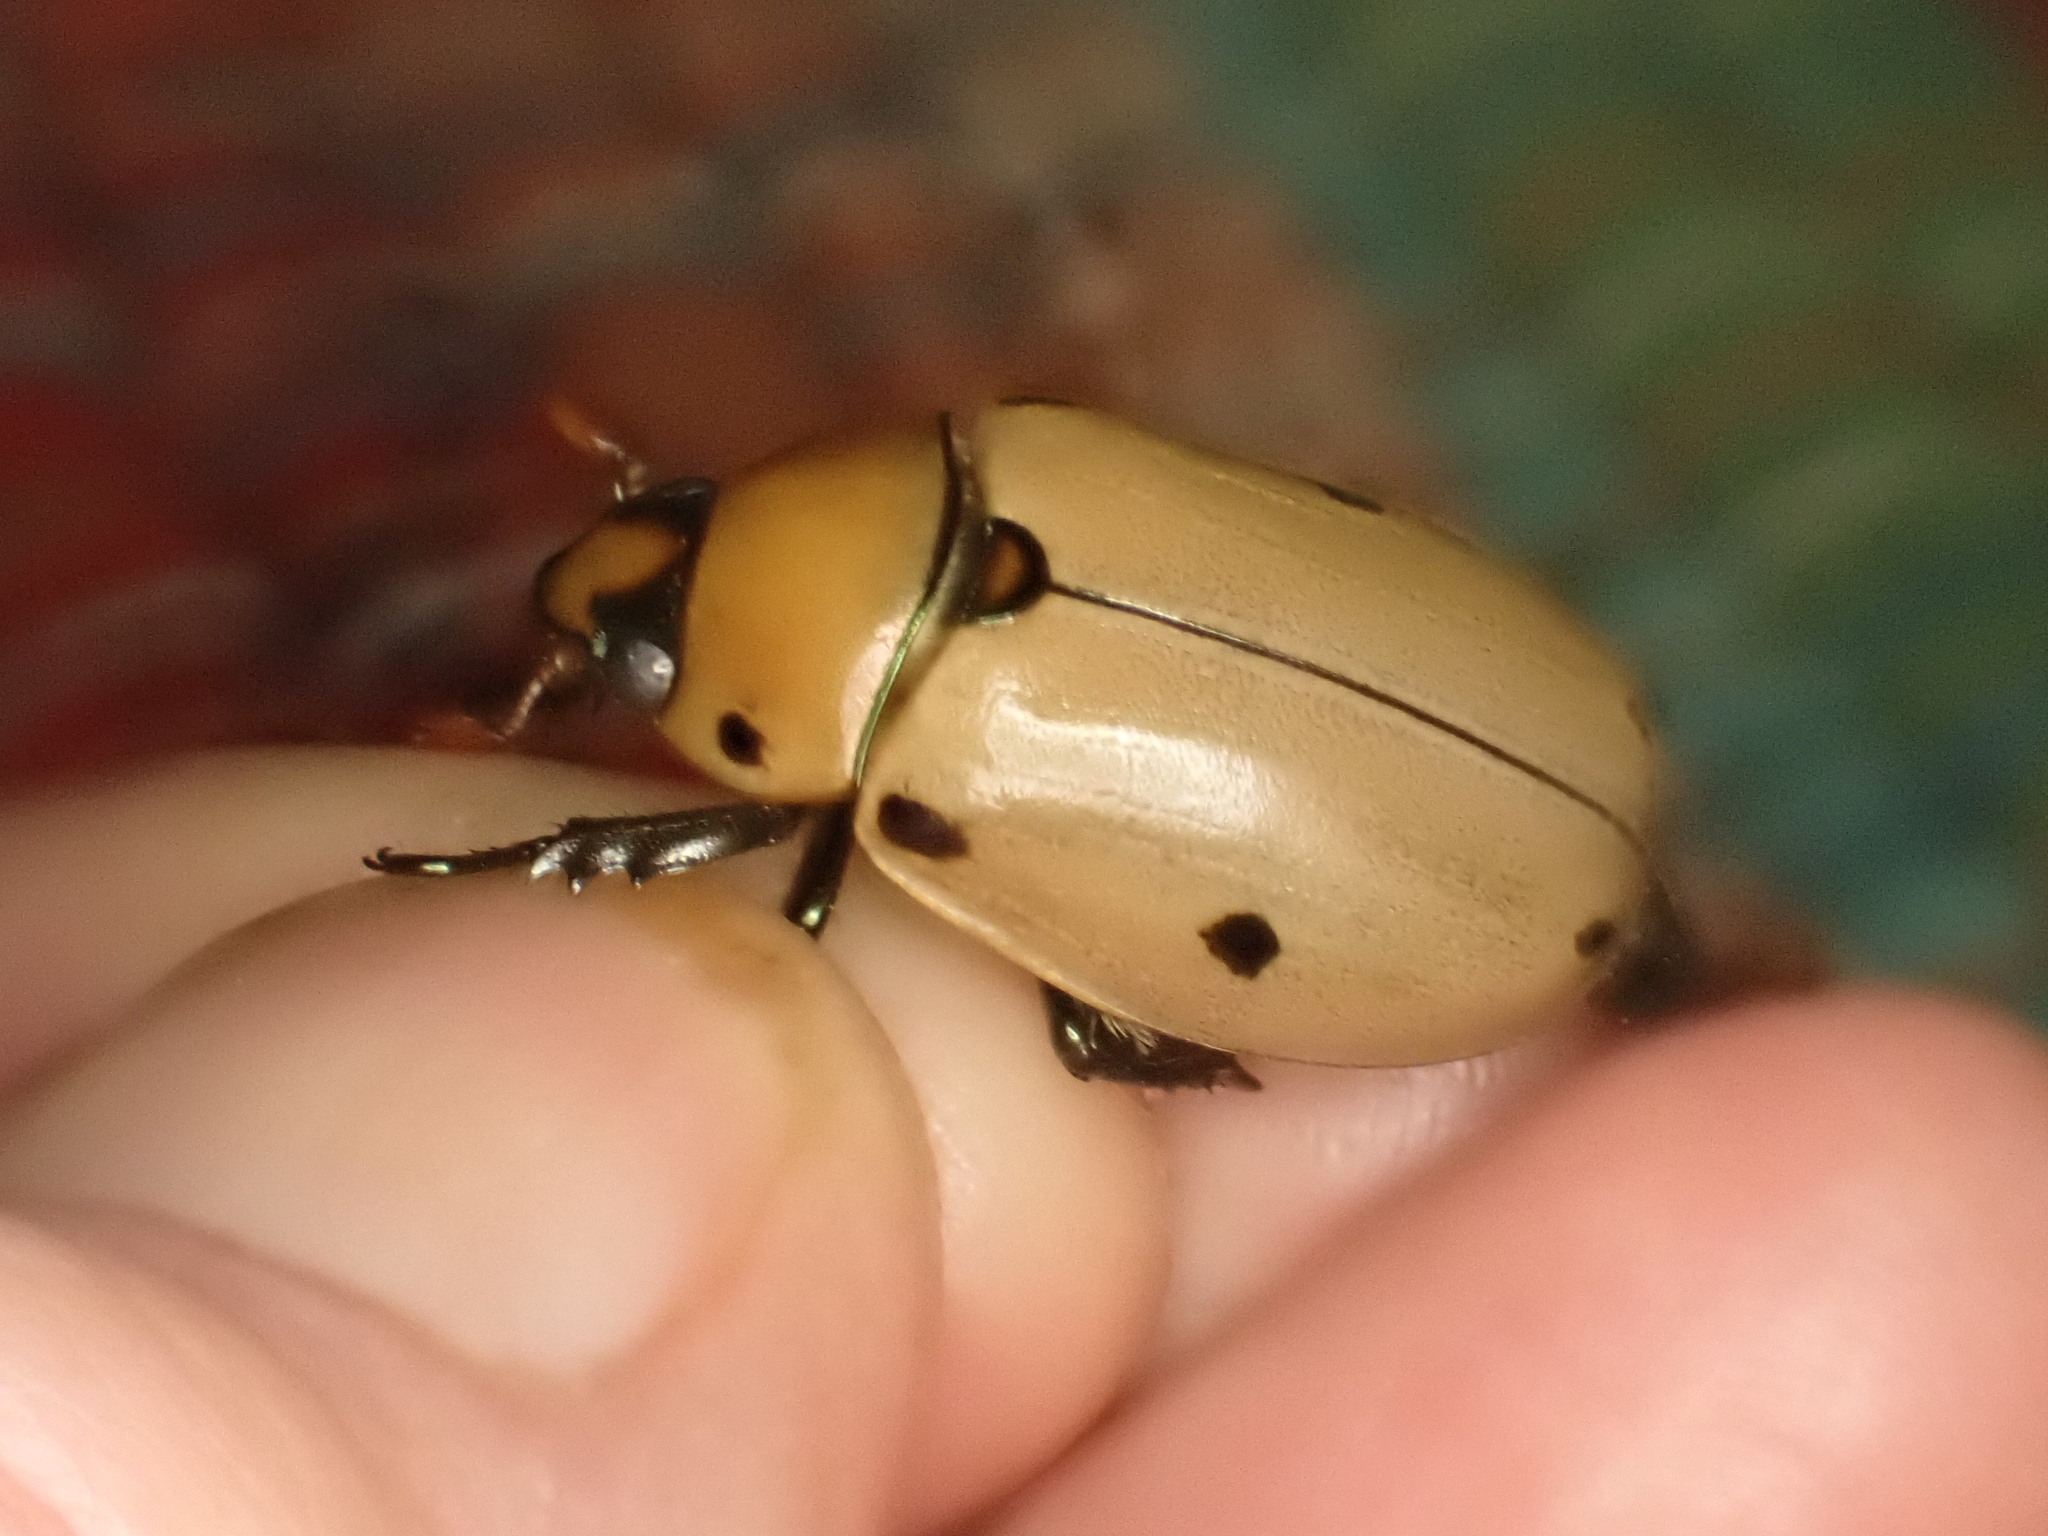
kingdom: Animalia
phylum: Arthropoda
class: Insecta
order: Coleoptera
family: Scarabaeidae
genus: Pelidnota
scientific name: Pelidnota punctata
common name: Grapevine beetle
